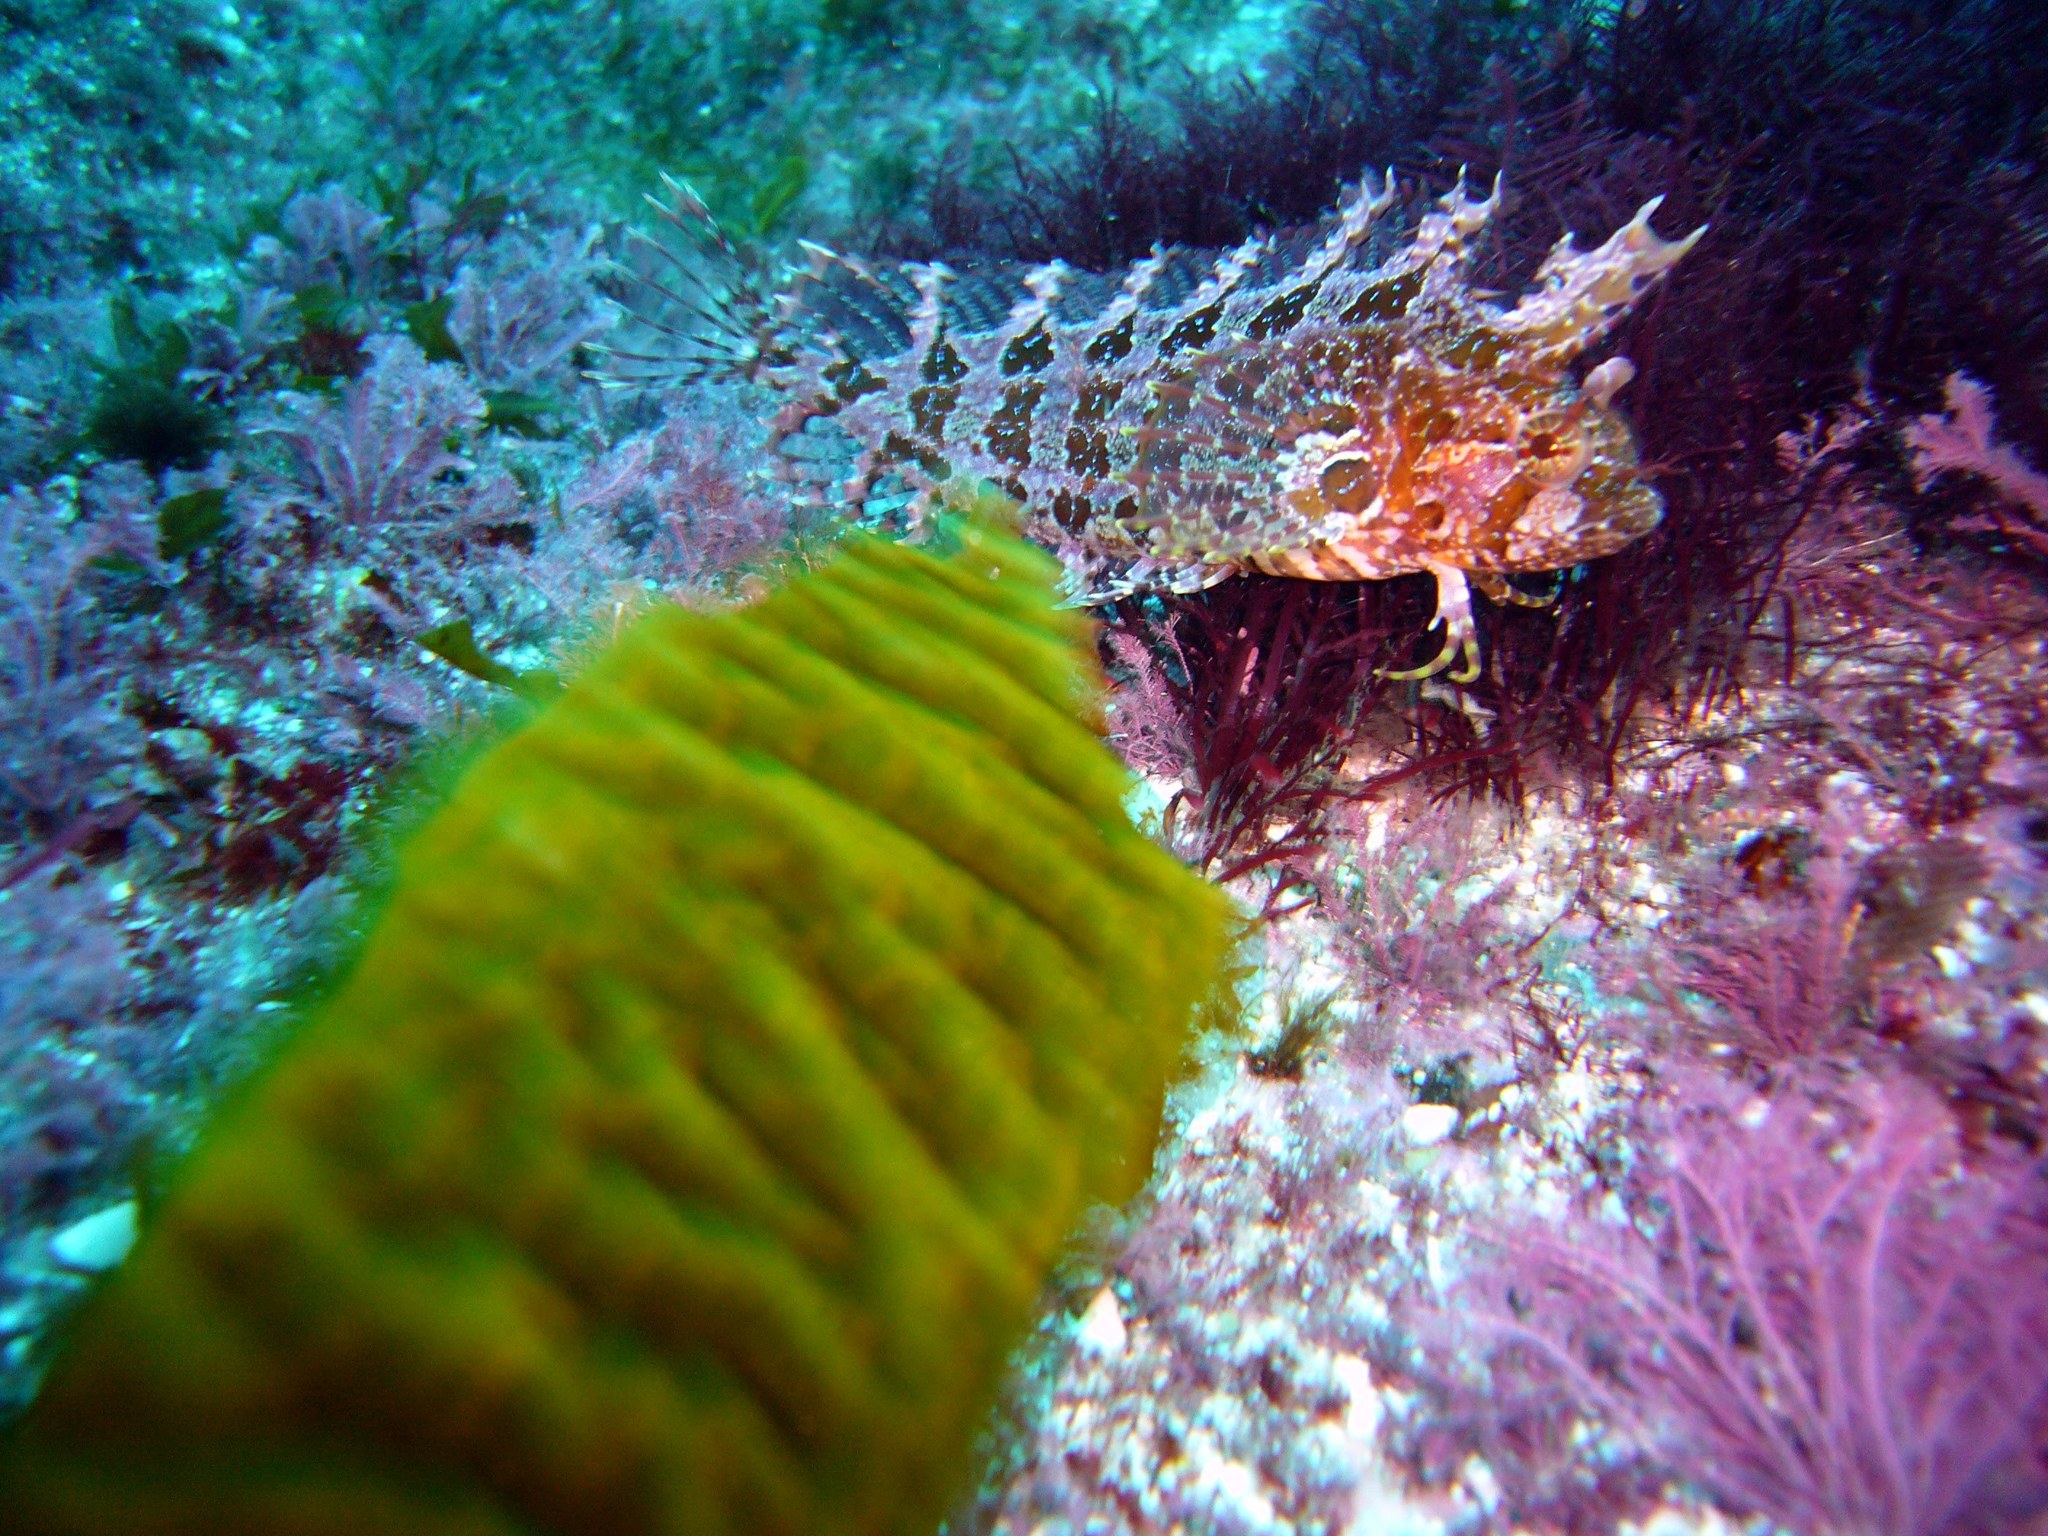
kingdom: Animalia
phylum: Chordata
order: Perciformes
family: Clinidae
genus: Heteroclinus
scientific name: Heteroclinus roseus
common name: Rosy weedfish
